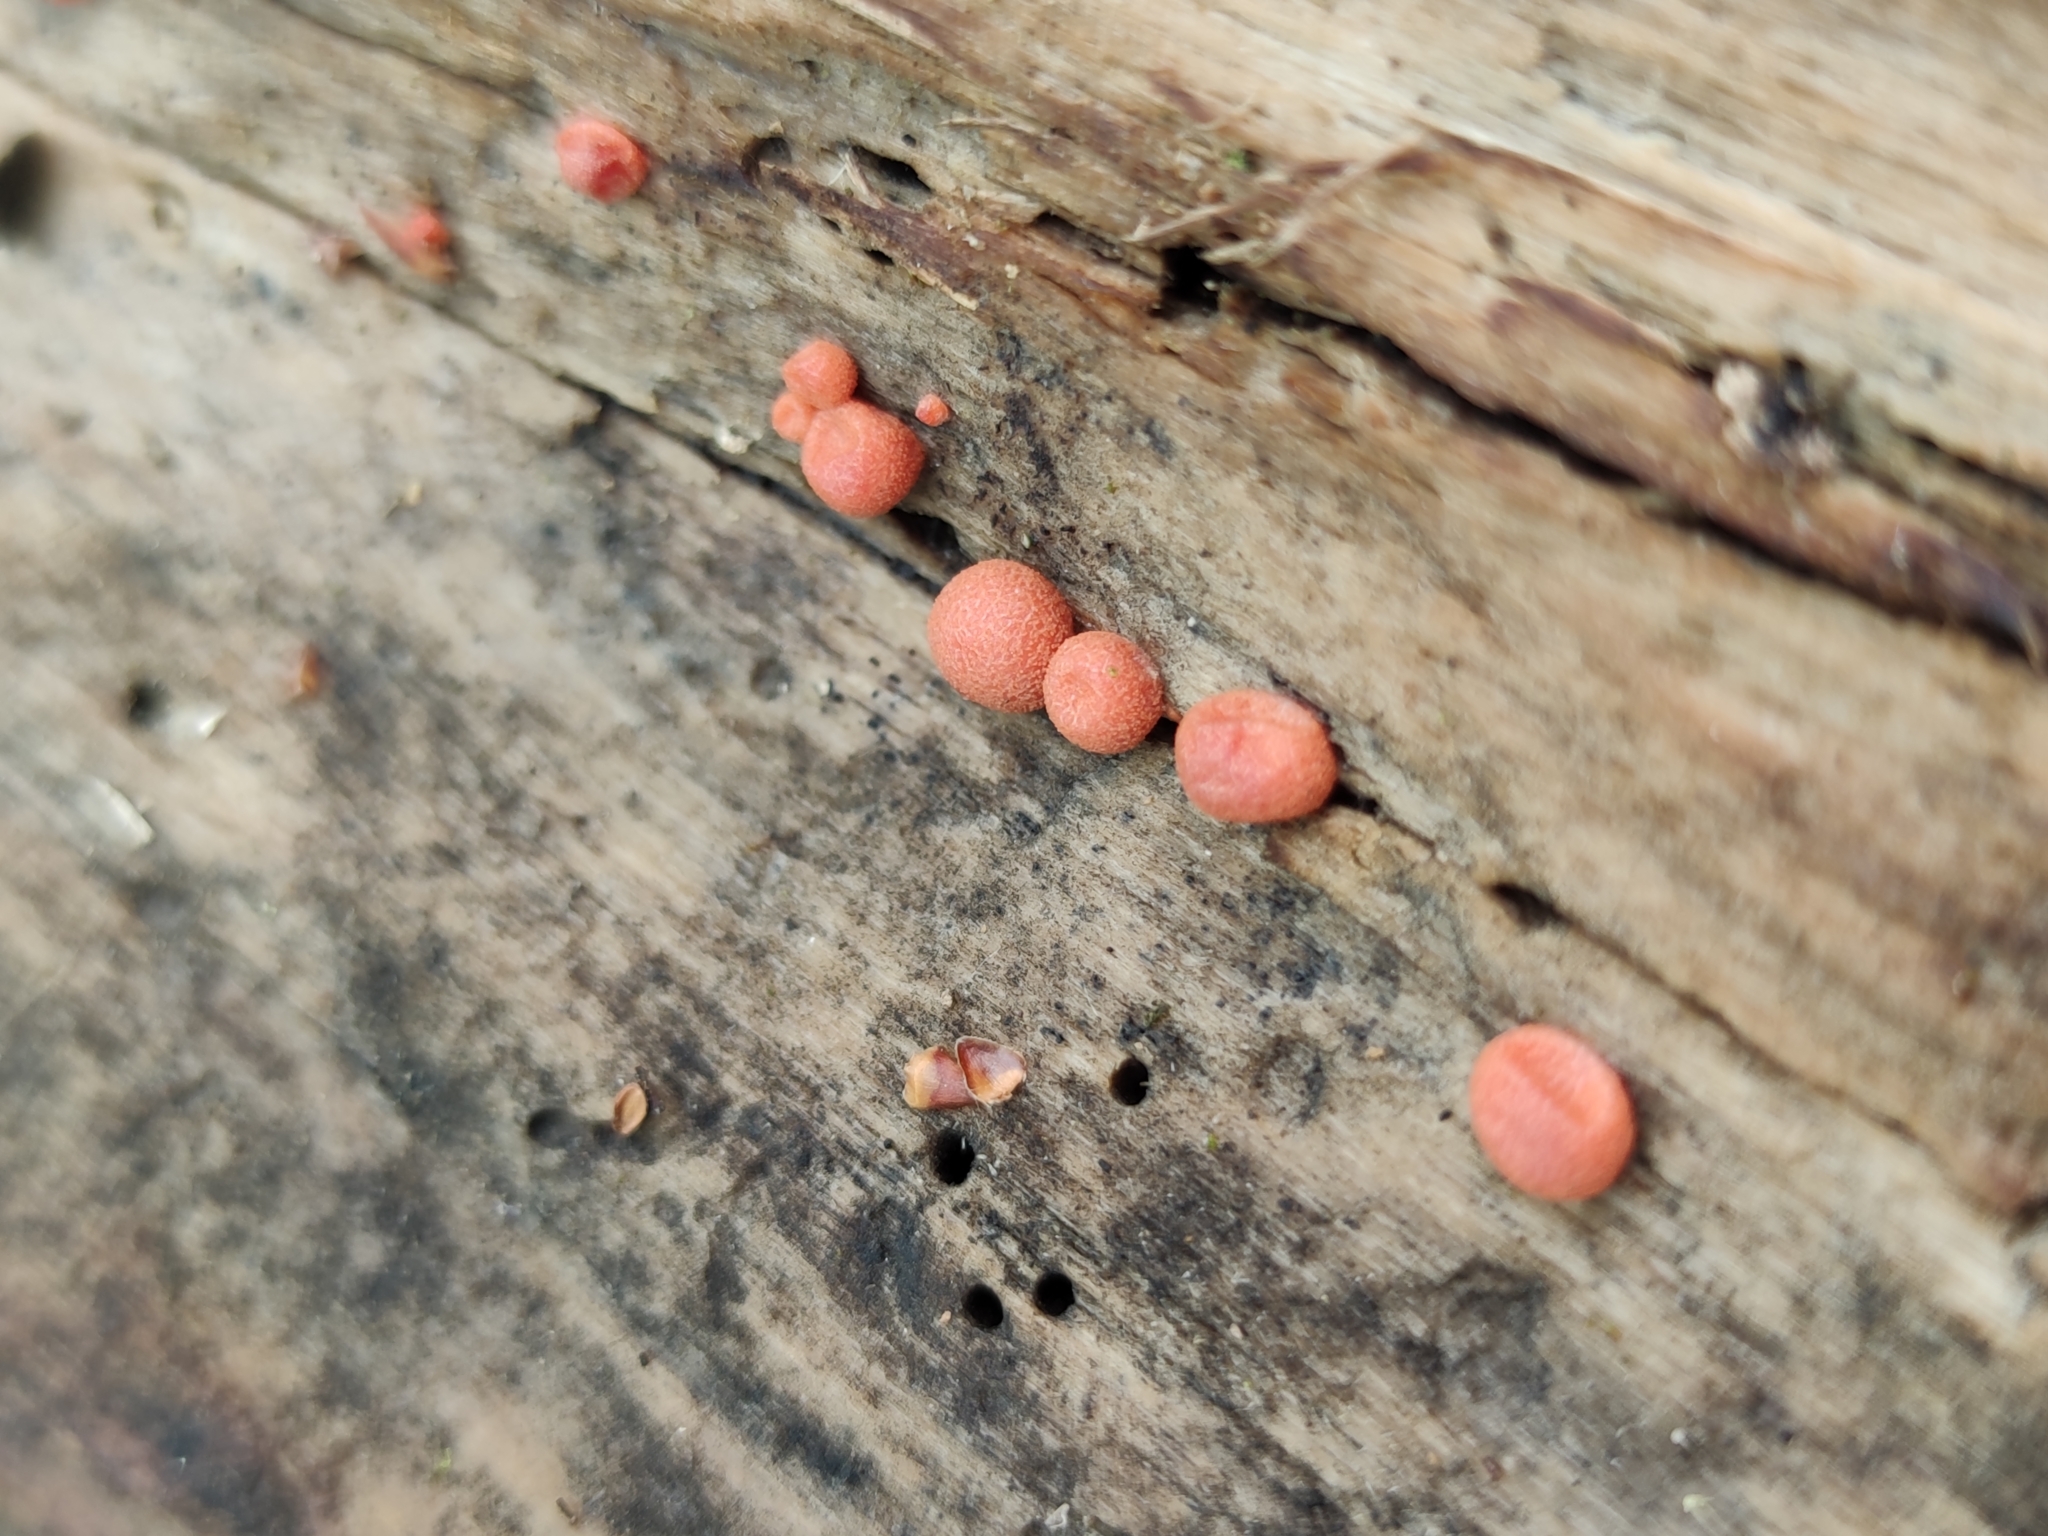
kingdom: Protozoa
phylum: Mycetozoa
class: Myxomycetes
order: Cribrariales
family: Tubiferaceae
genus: Lycogala
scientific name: Lycogala epidendrum
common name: Wolf's milk
